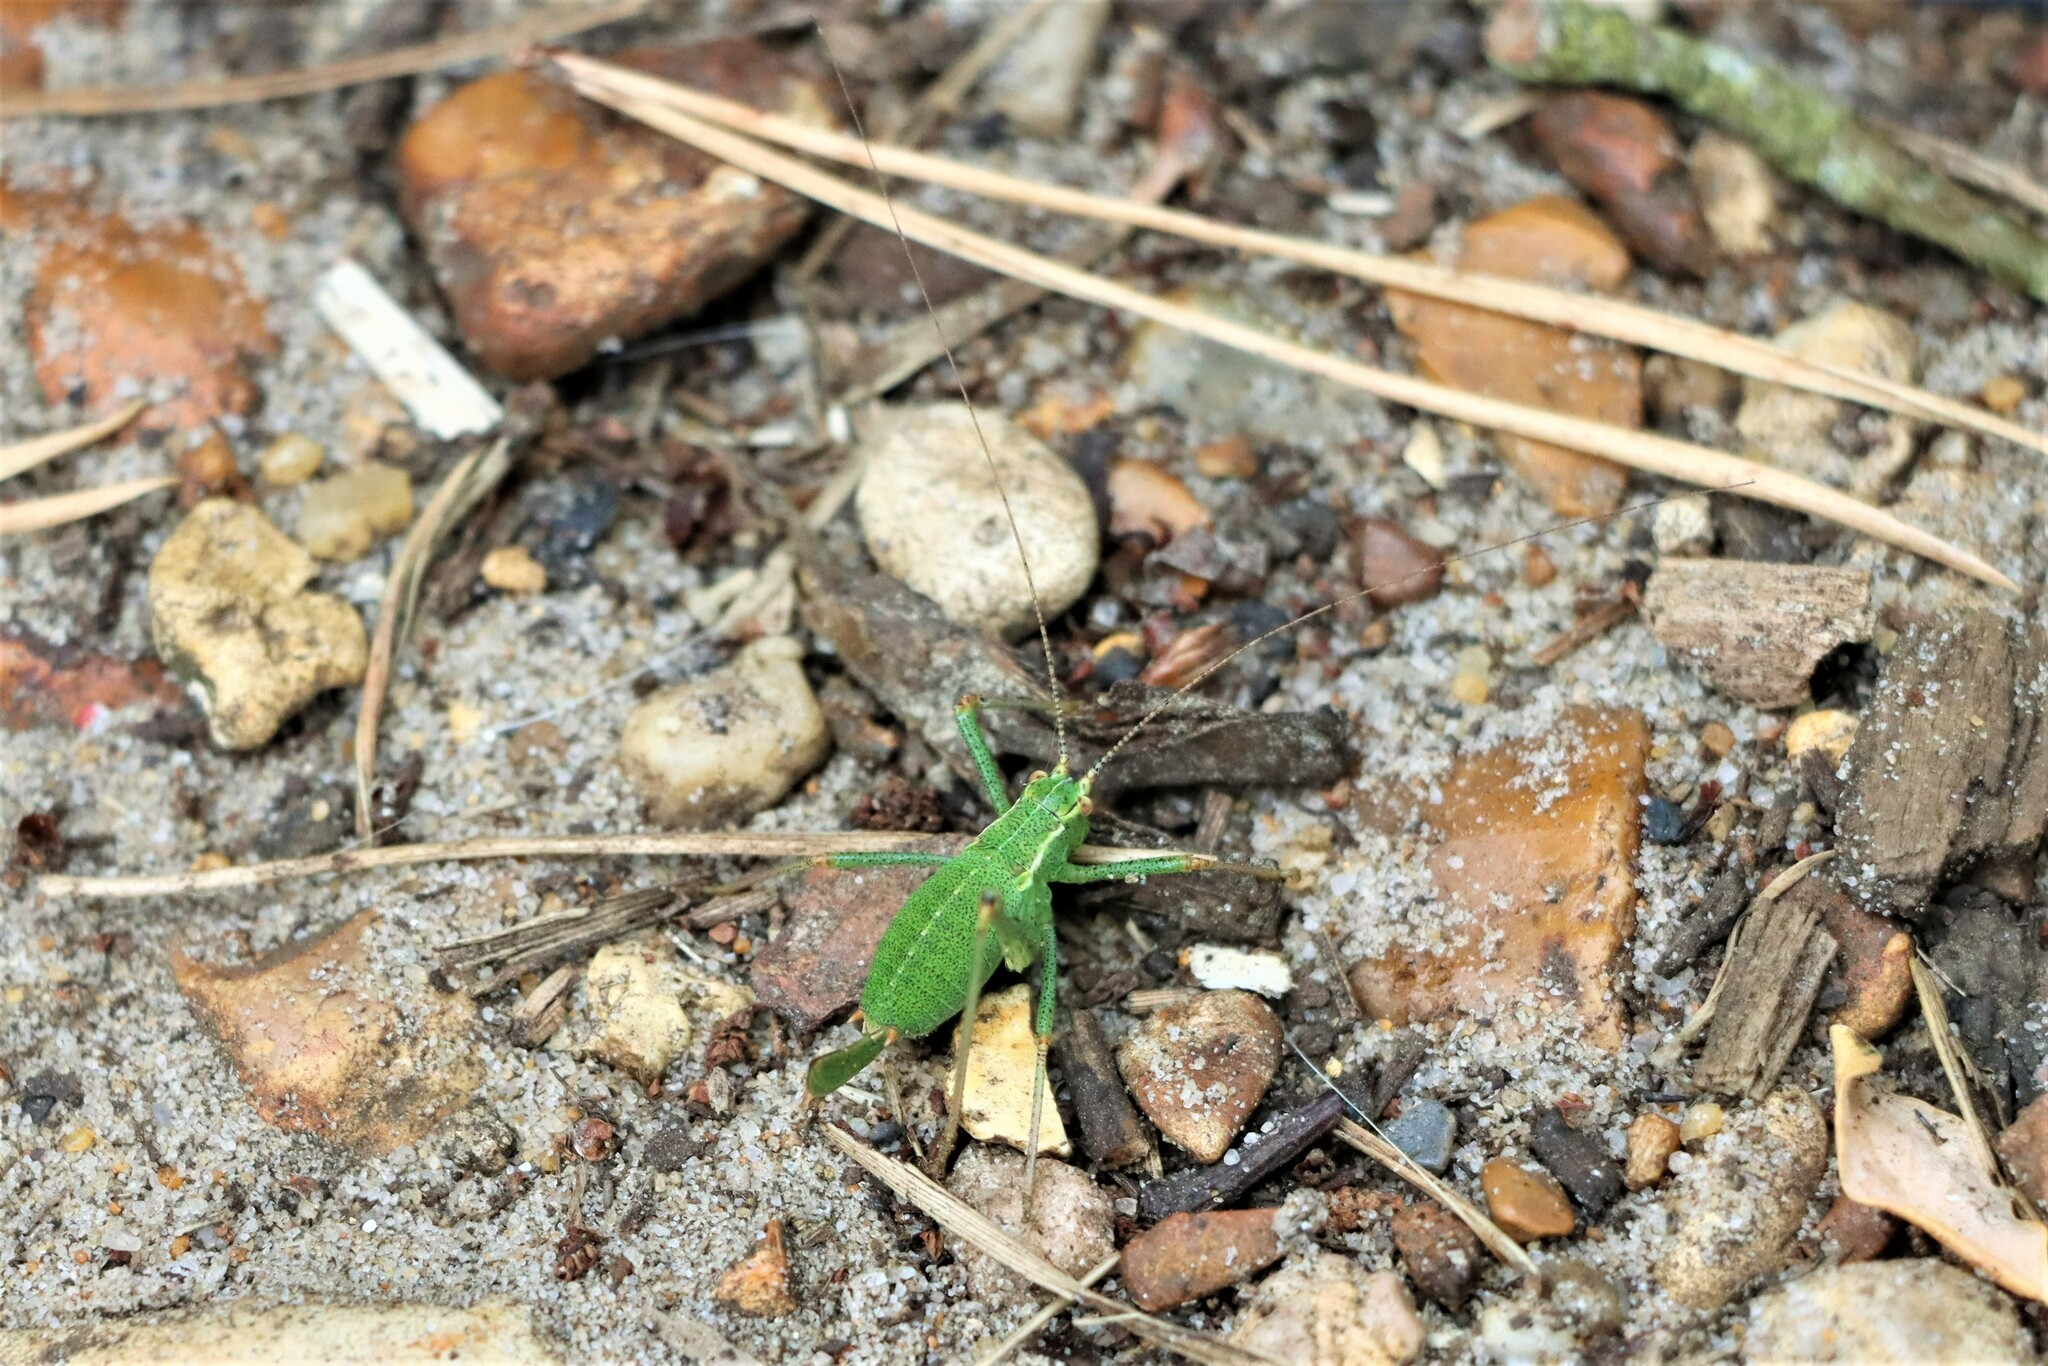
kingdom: Animalia
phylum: Arthropoda
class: Insecta
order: Orthoptera
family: Tettigoniidae
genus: Leptophyes
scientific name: Leptophyes punctatissima
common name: Speckled bush-cricket
